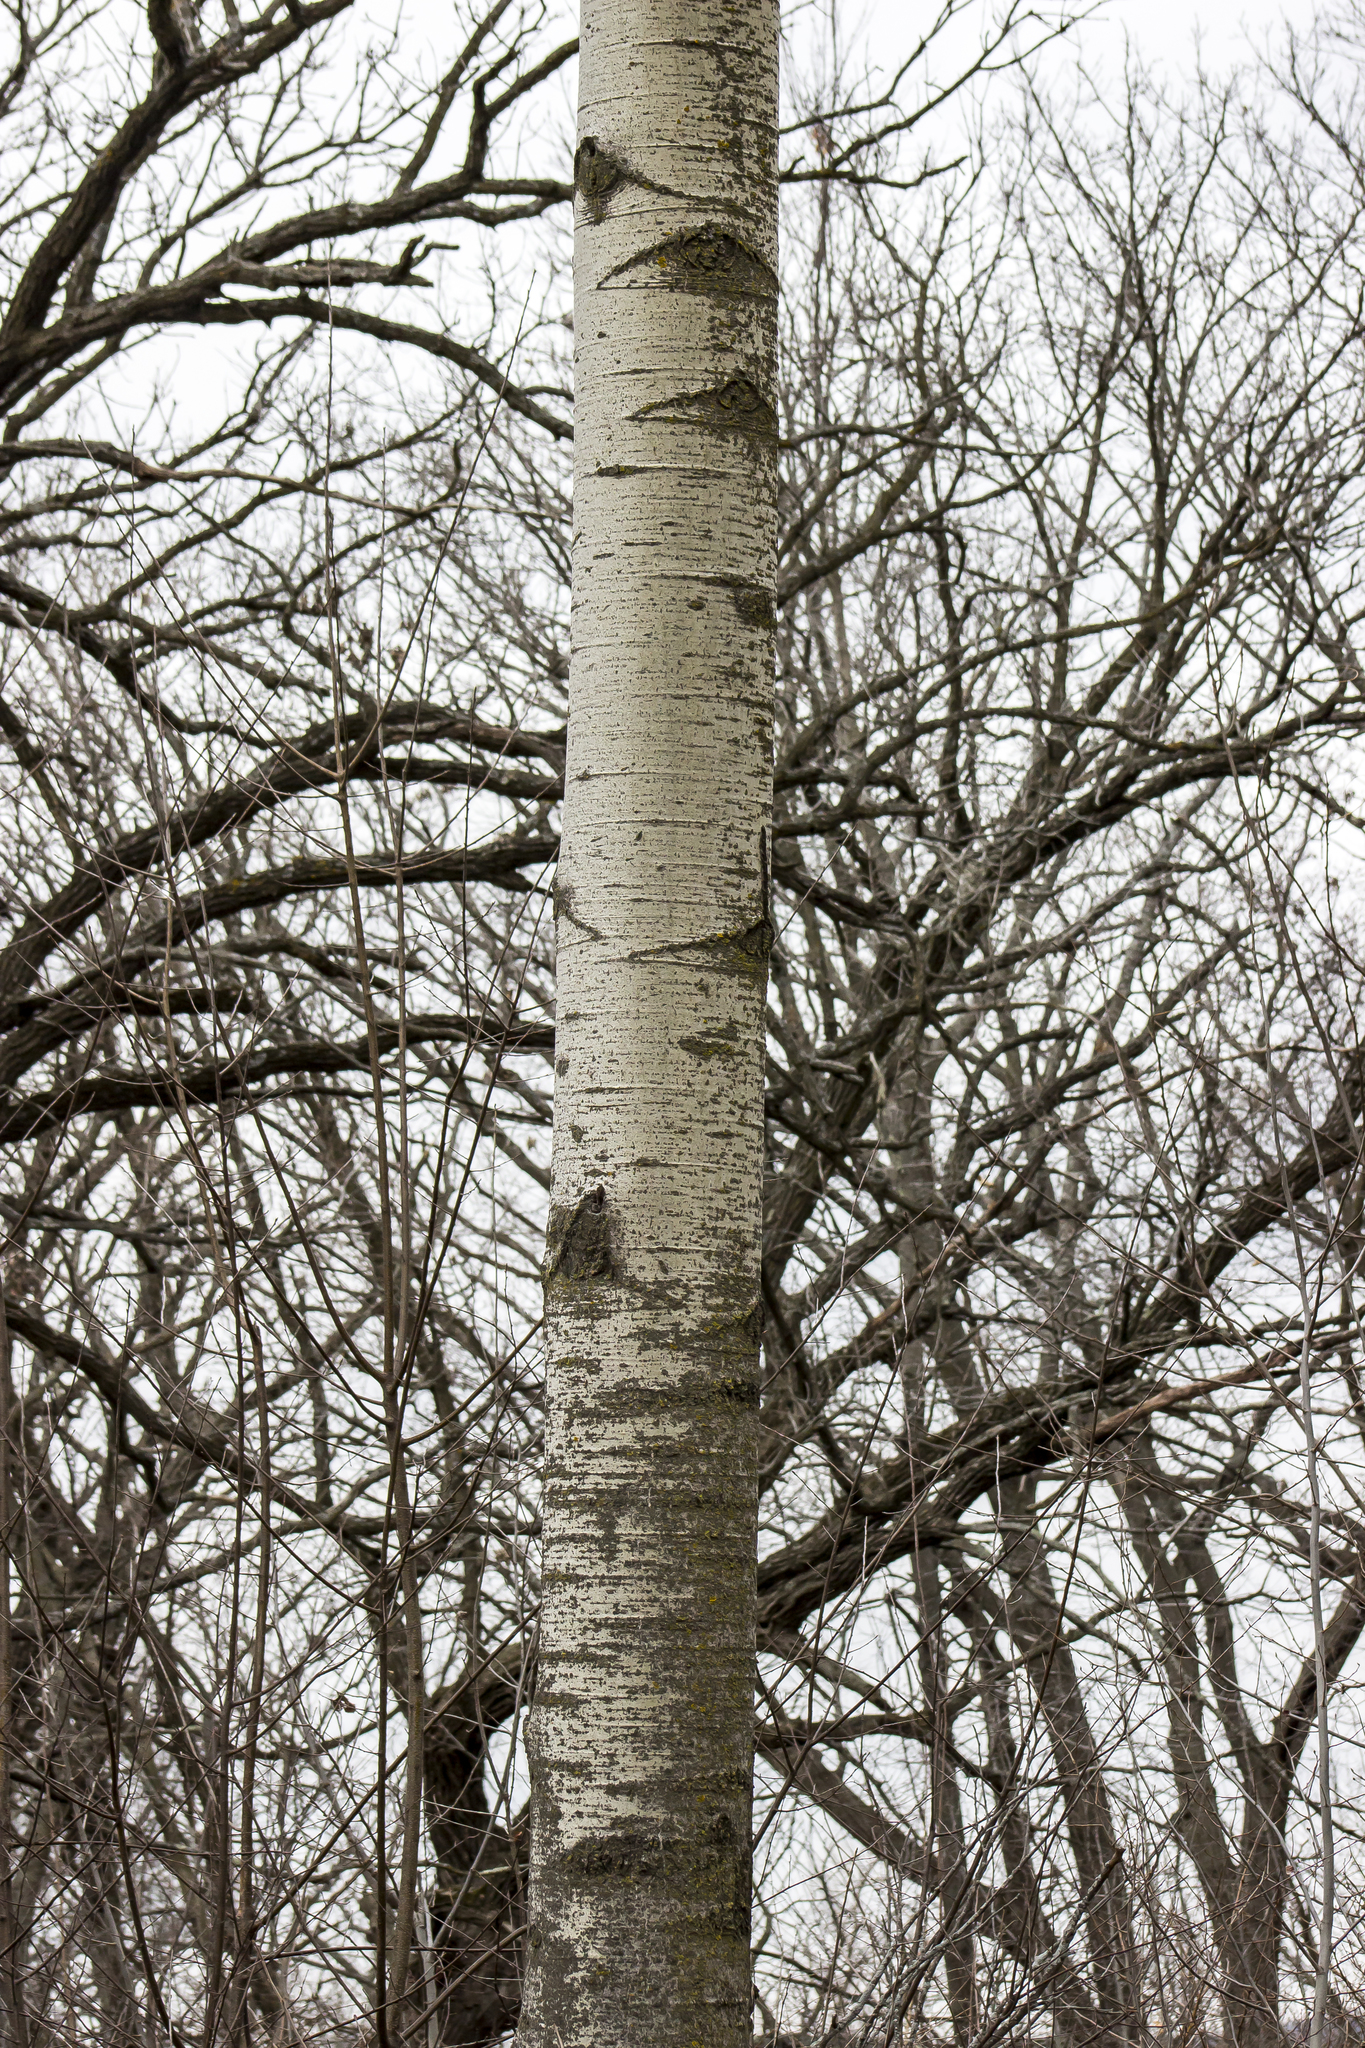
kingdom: Plantae
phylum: Tracheophyta
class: Magnoliopsida
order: Malpighiales
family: Salicaceae
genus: Populus
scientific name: Populus tremuloides
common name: Quaking aspen
